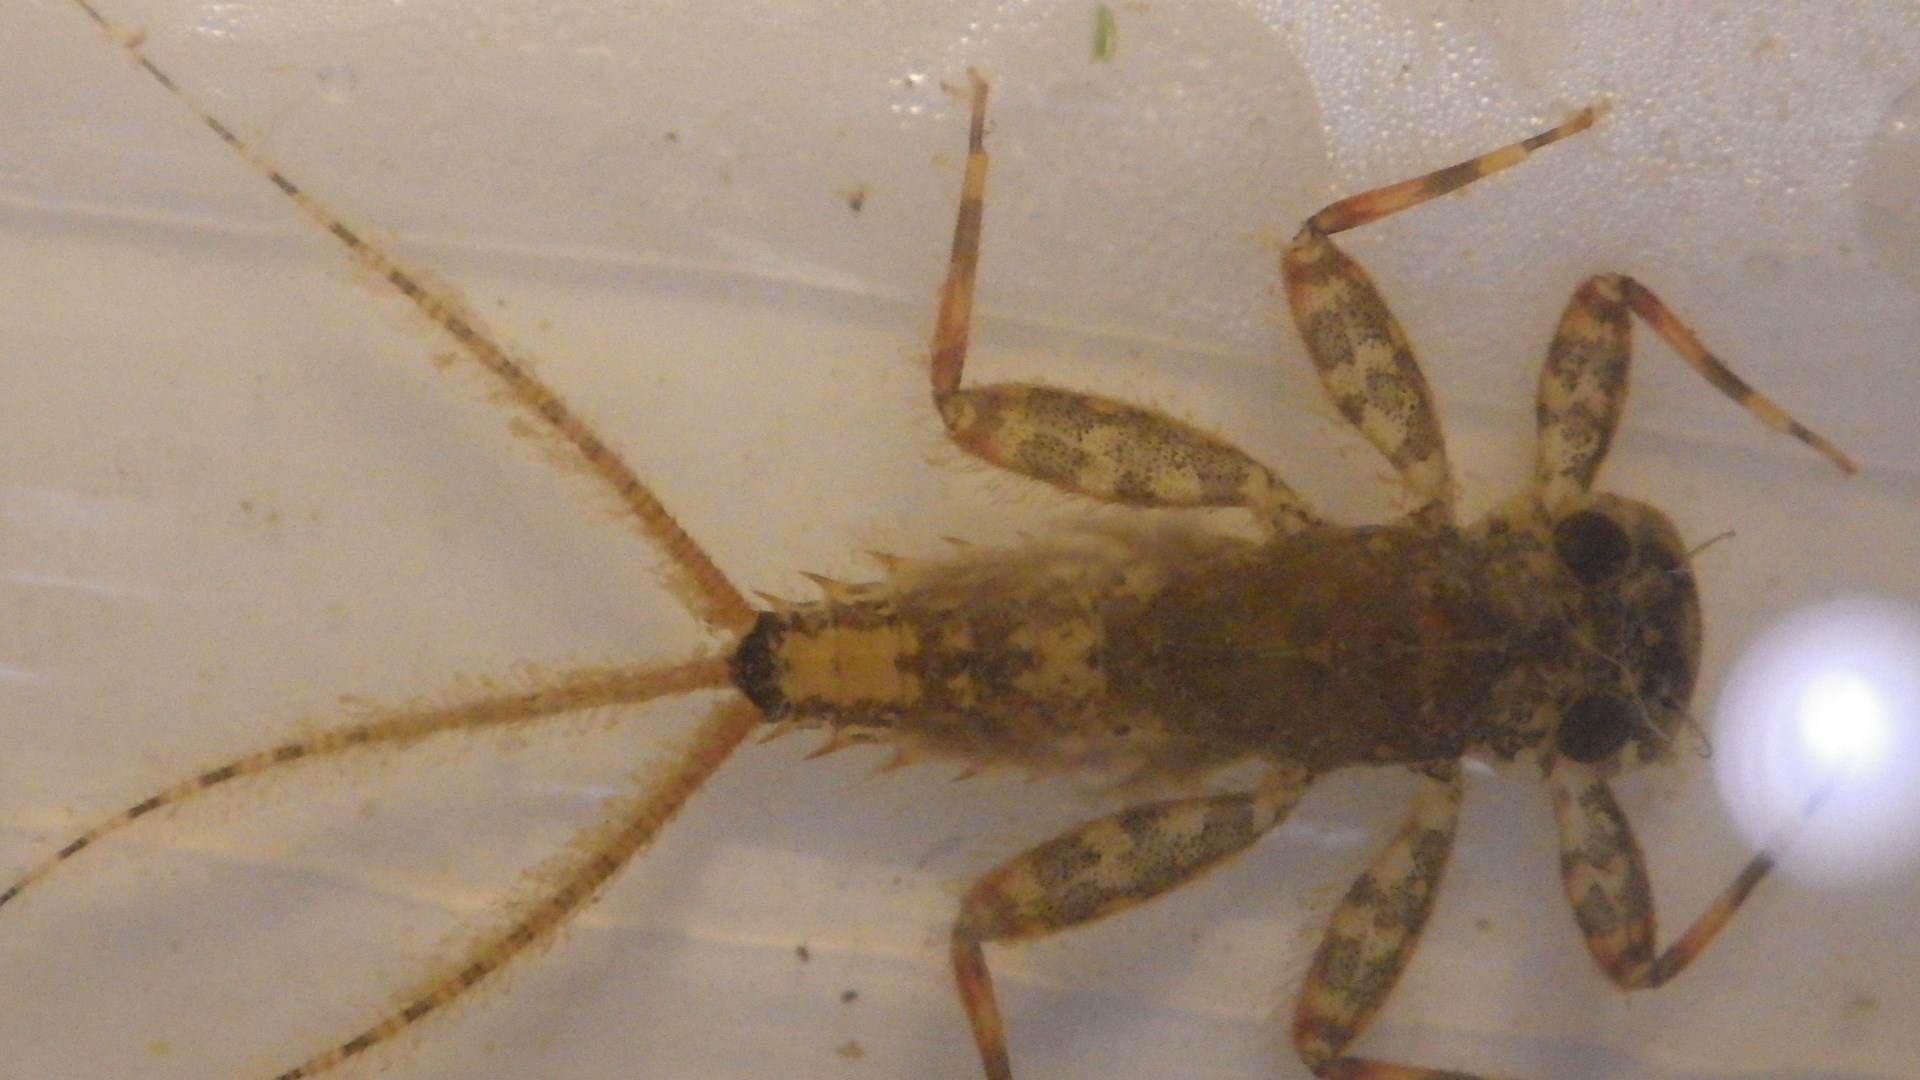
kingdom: Animalia
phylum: Arthropoda
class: Insecta
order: Ephemeroptera
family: Heptageniidae
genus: Stenonema
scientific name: Stenonema femoratum
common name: Dark cahill
